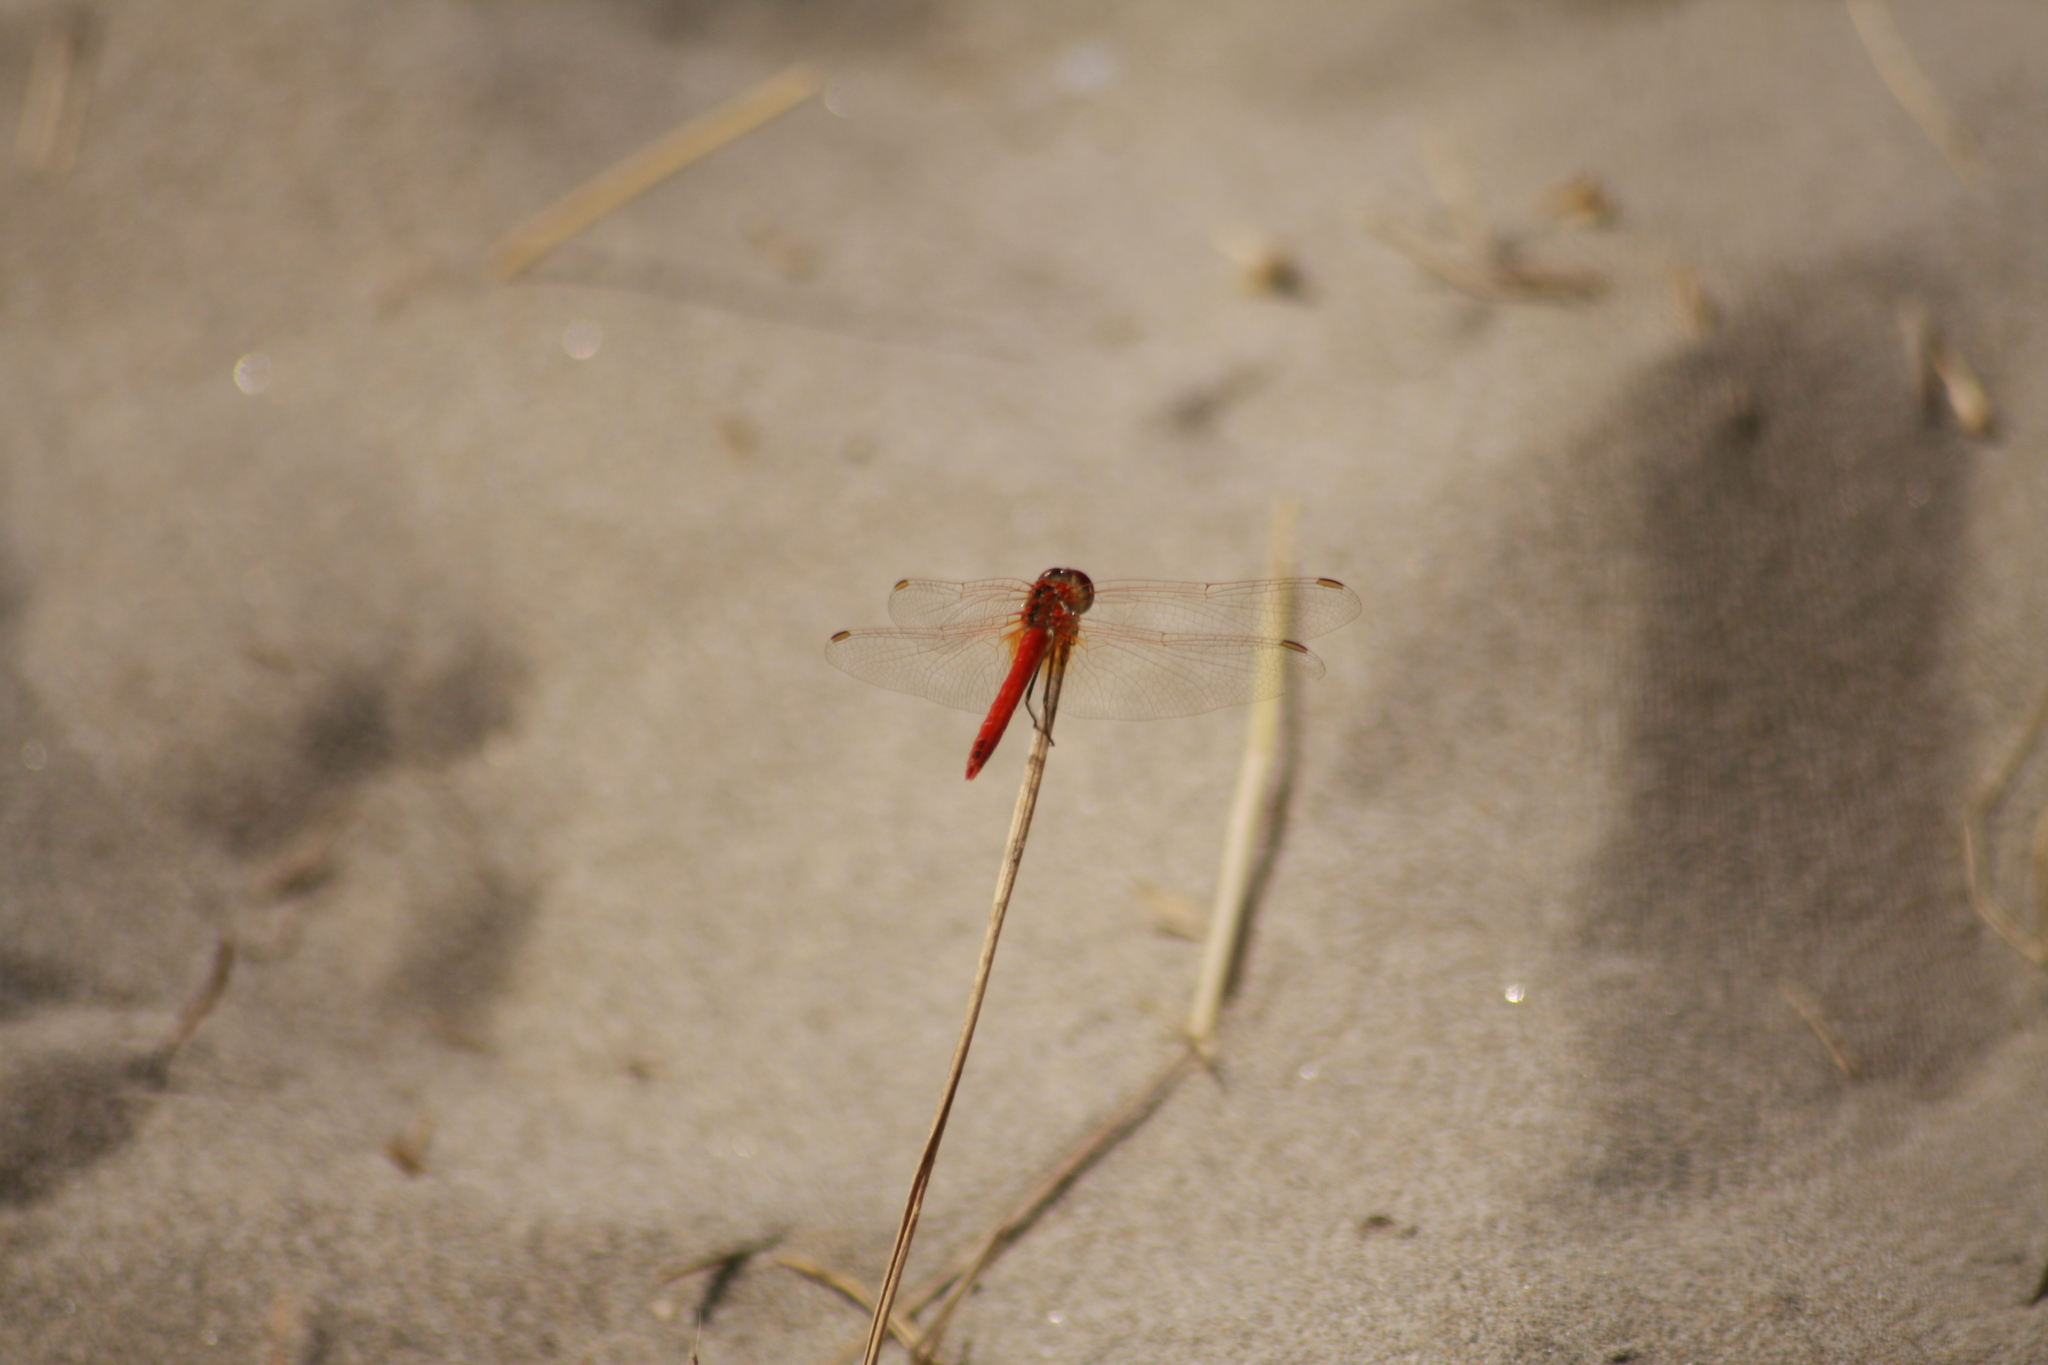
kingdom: Animalia
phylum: Arthropoda
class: Insecta
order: Odonata
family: Libellulidae
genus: Sympetrum
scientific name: Sympetrum fonscolombii
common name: Red-veined darter
